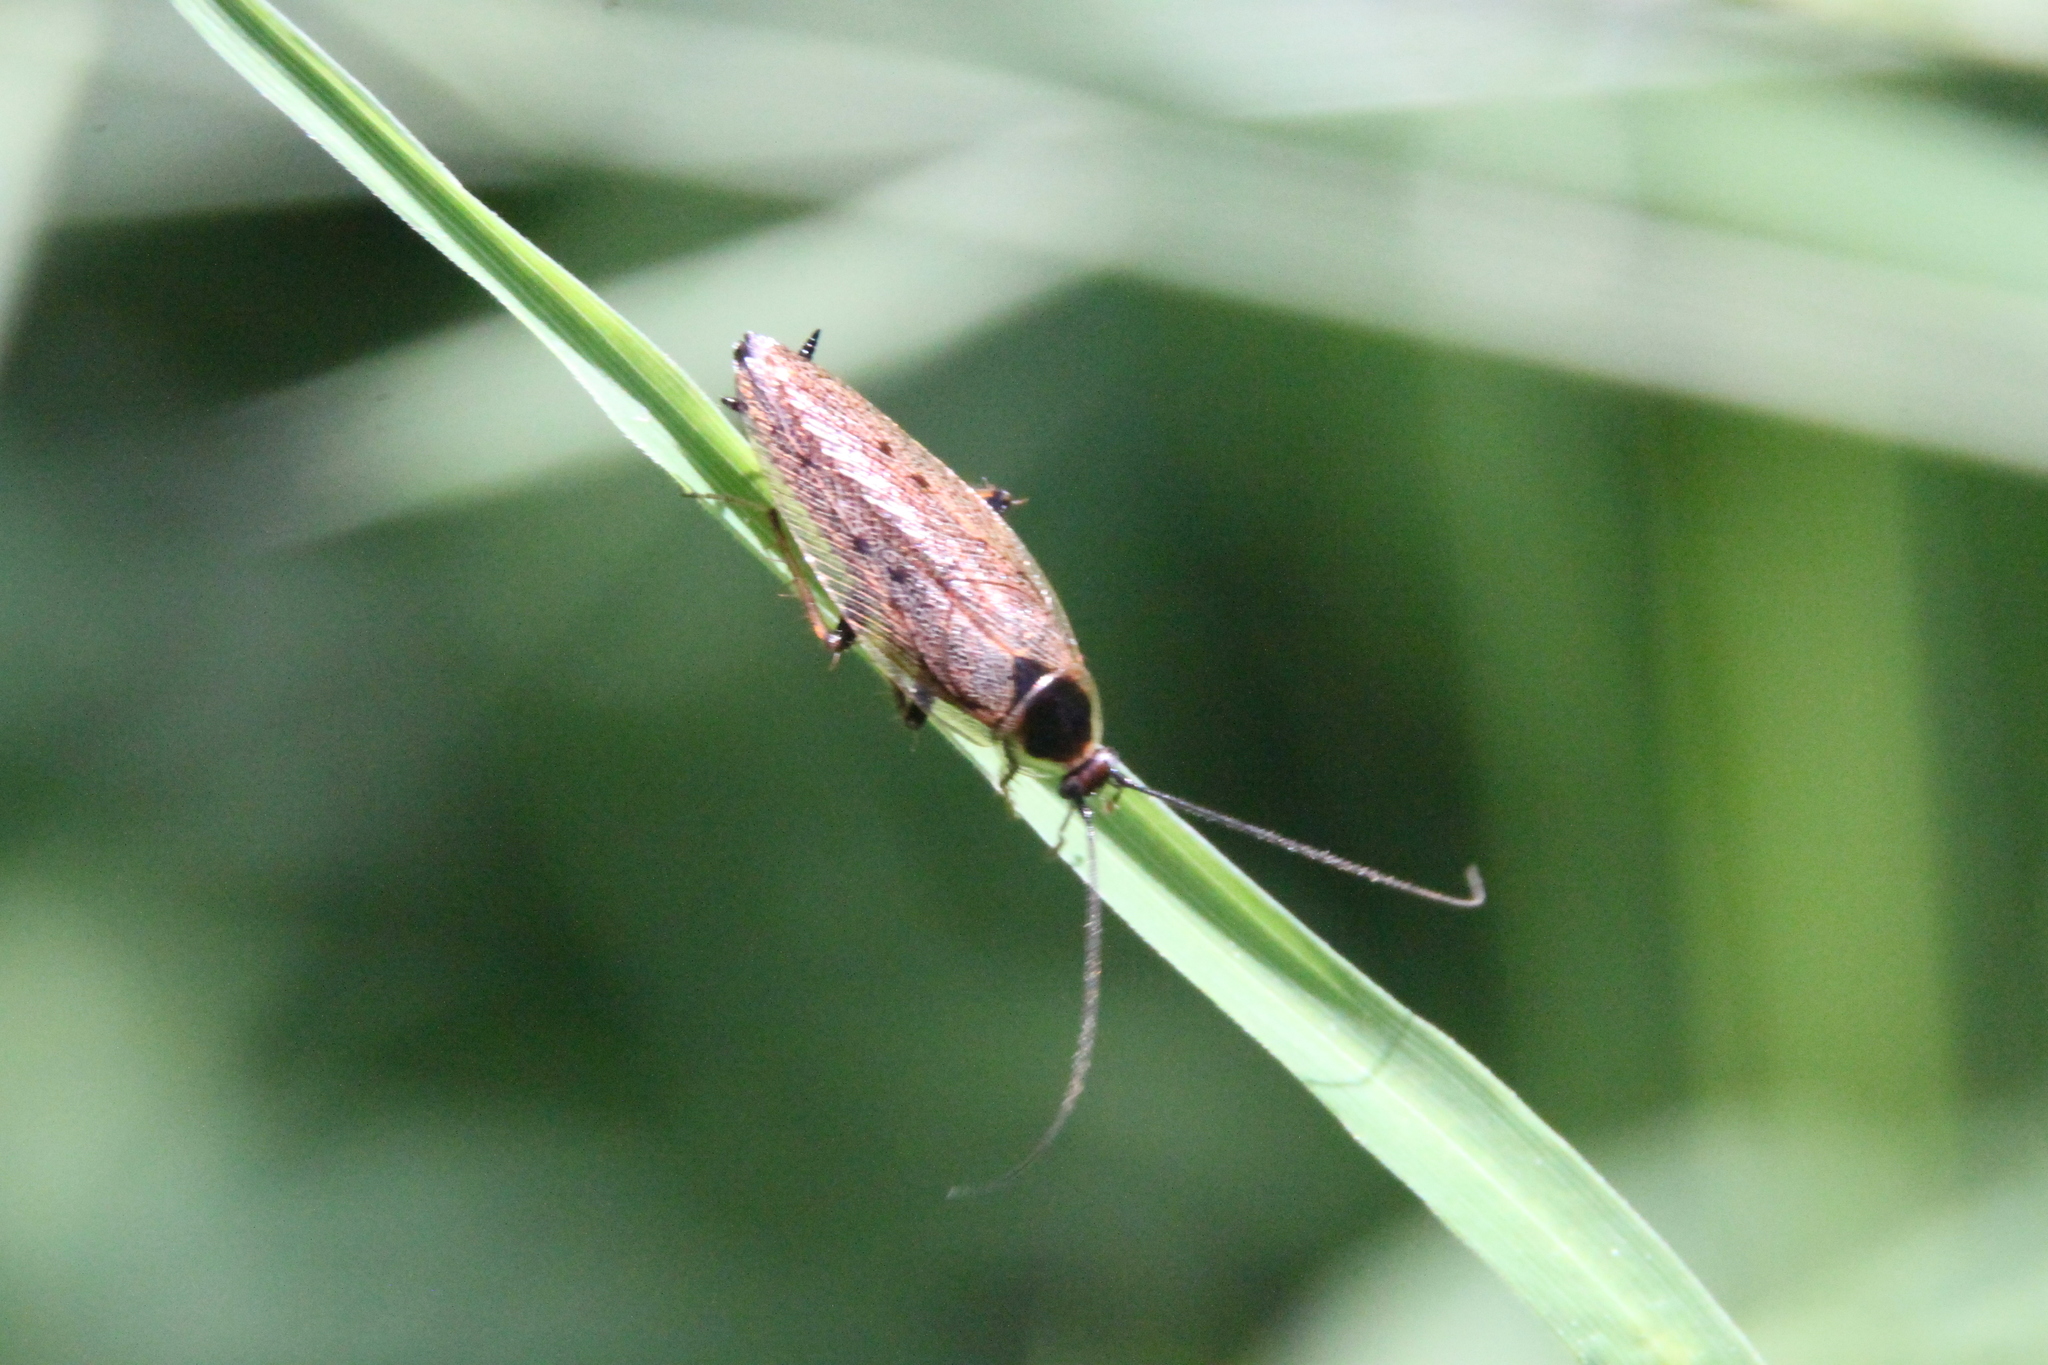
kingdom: Animalia
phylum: Arthropoda
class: Insecta
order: Blattodea
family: Ectobiidae
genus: Ectobius
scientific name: Ectobius lapponicus
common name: Dusky cockroach
